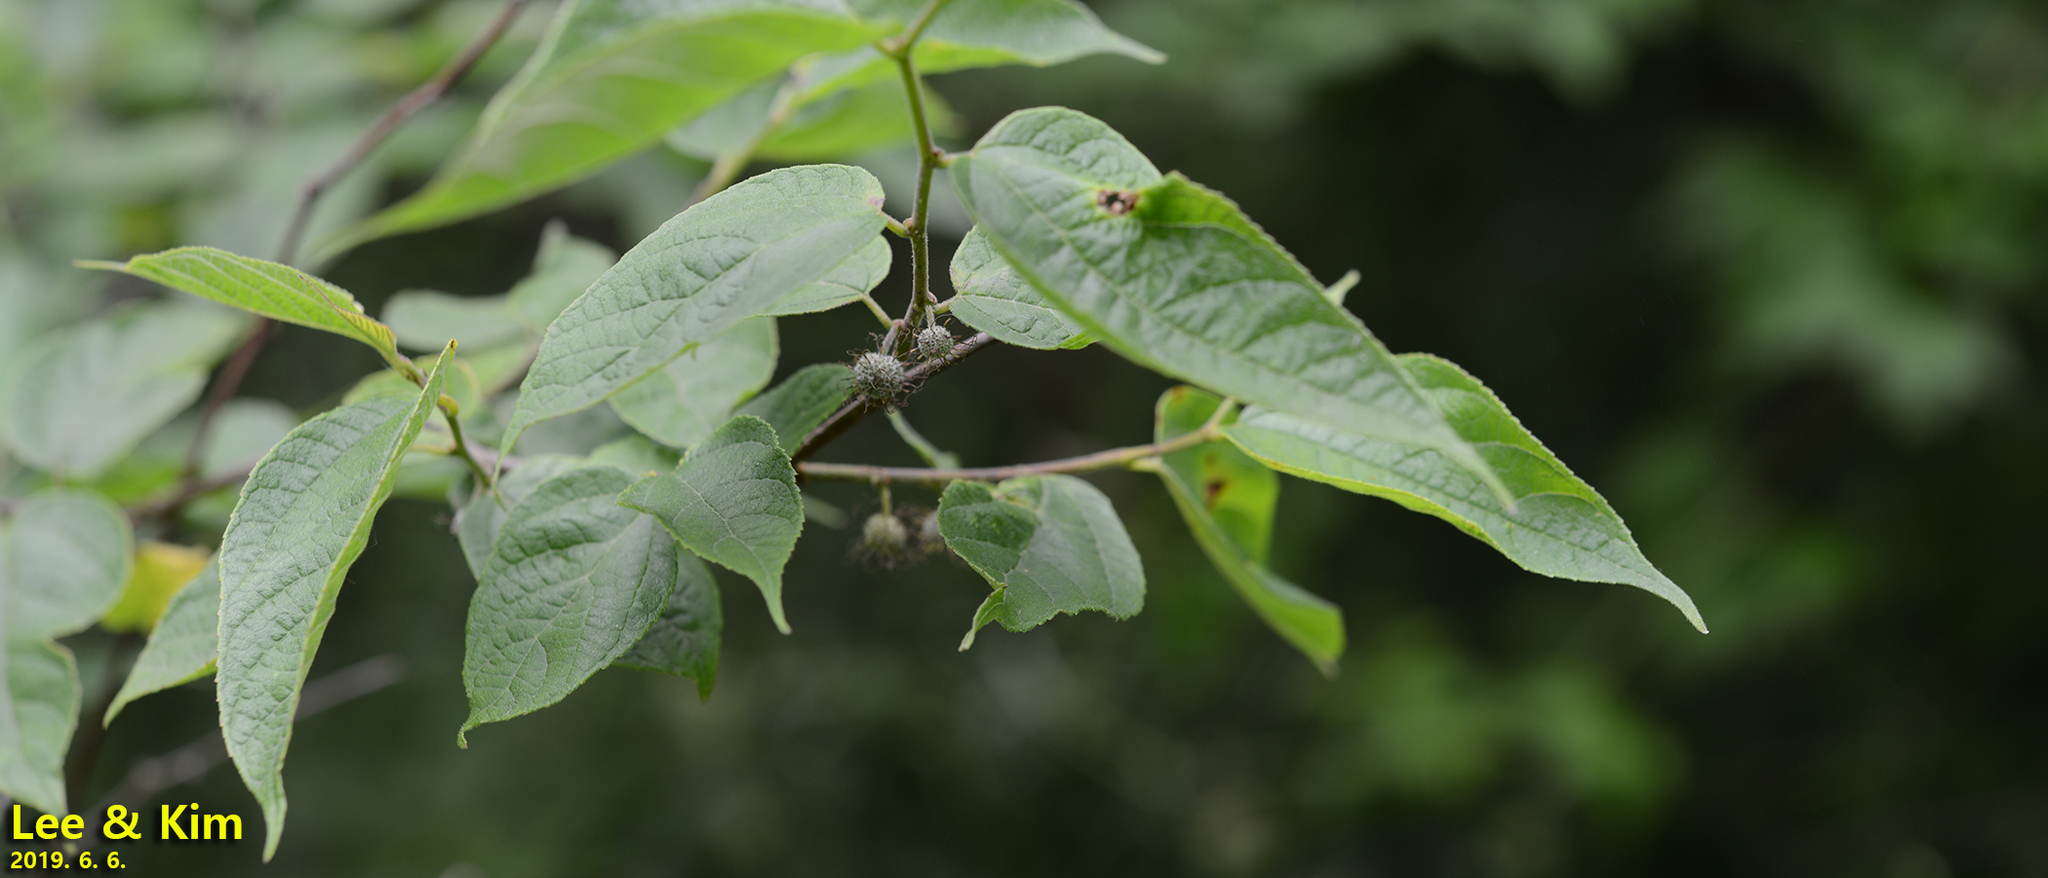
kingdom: Plantae
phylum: Tracheophyta
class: Magnoliopsida
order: Rosales
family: Moraceae
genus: Broussonetia
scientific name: Broussonetia papyrifera
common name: Paper mulberry
